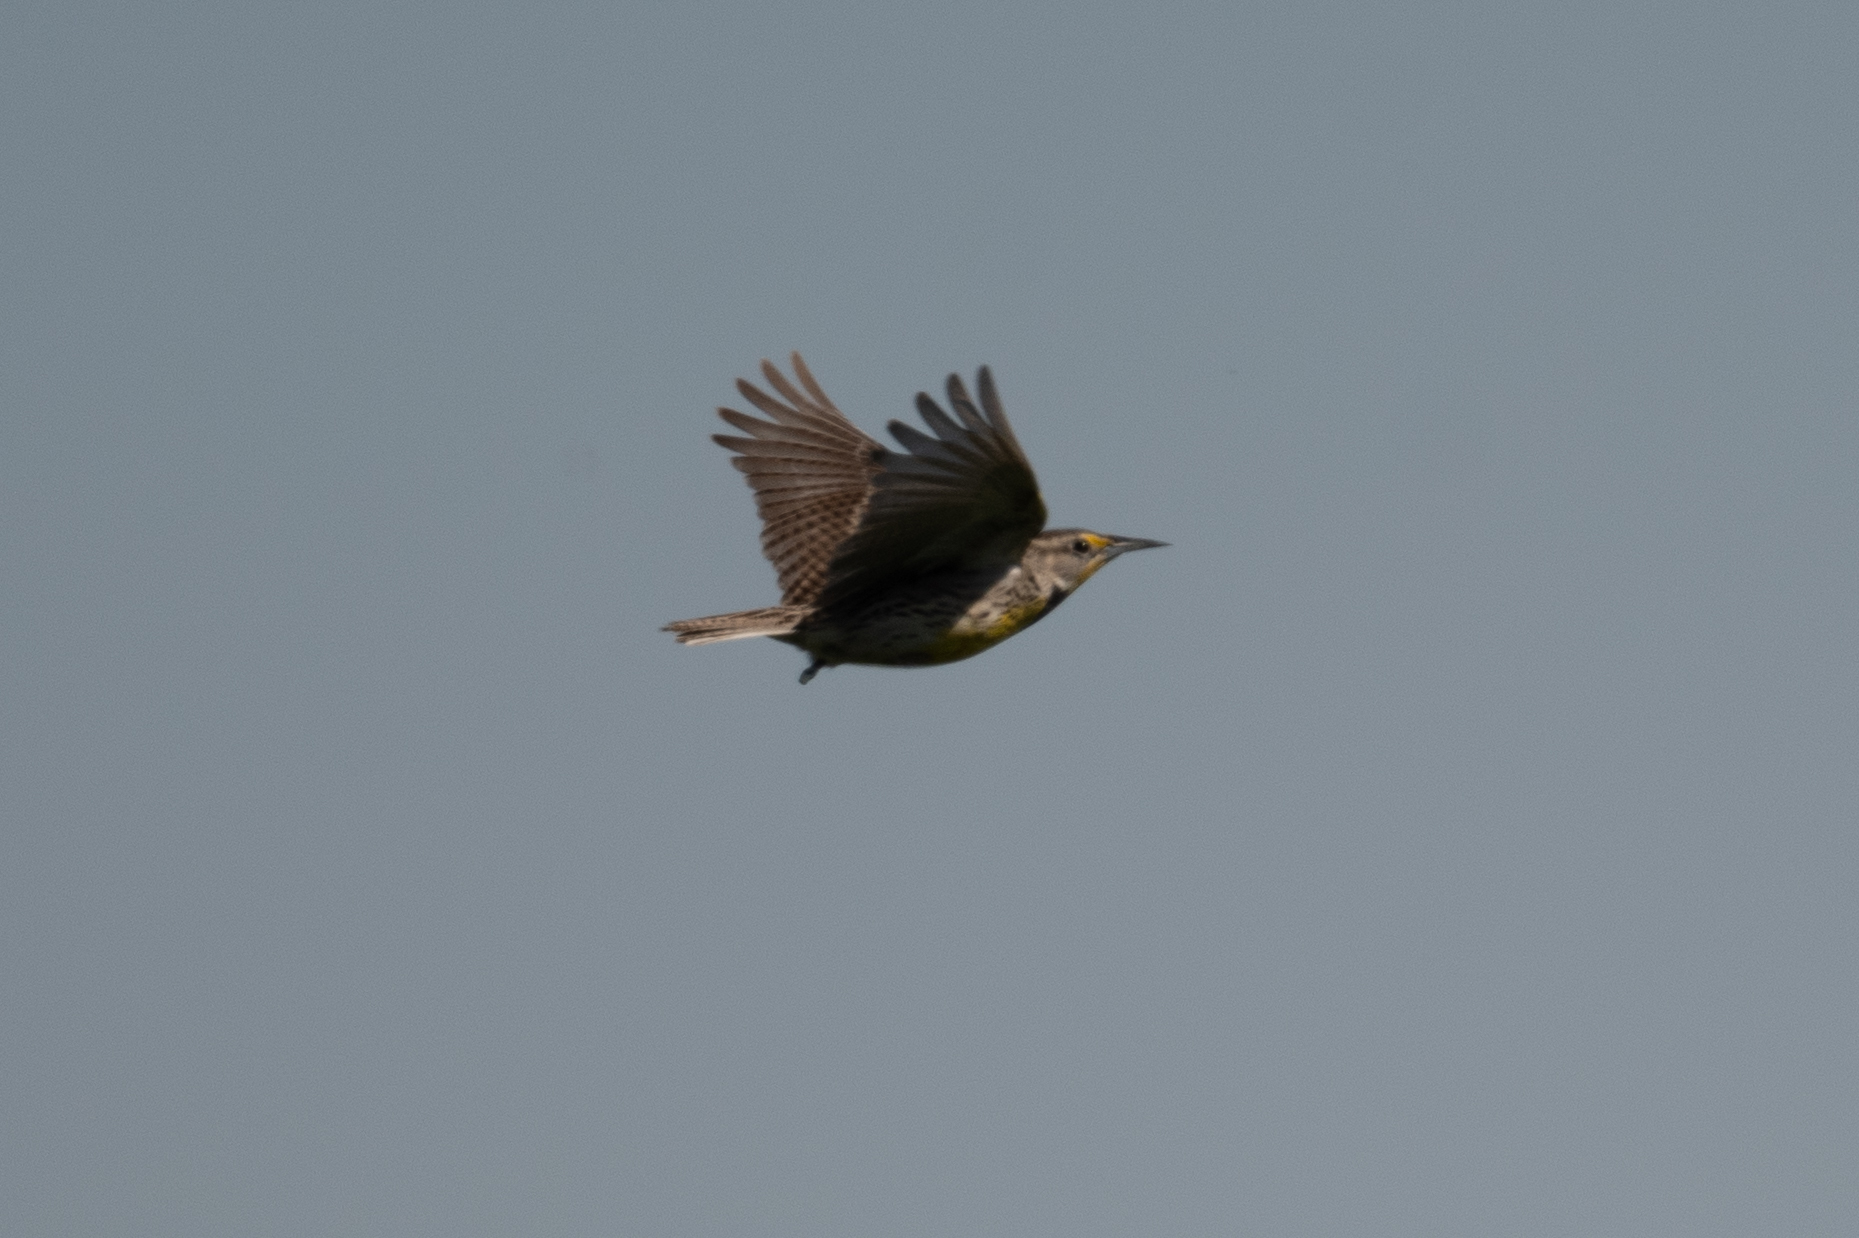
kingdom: Animalia
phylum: Chordata
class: Aves
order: Passeriformes
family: Icteridae
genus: Sturnella
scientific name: Sturnella neglecta
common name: Western meadowlark
